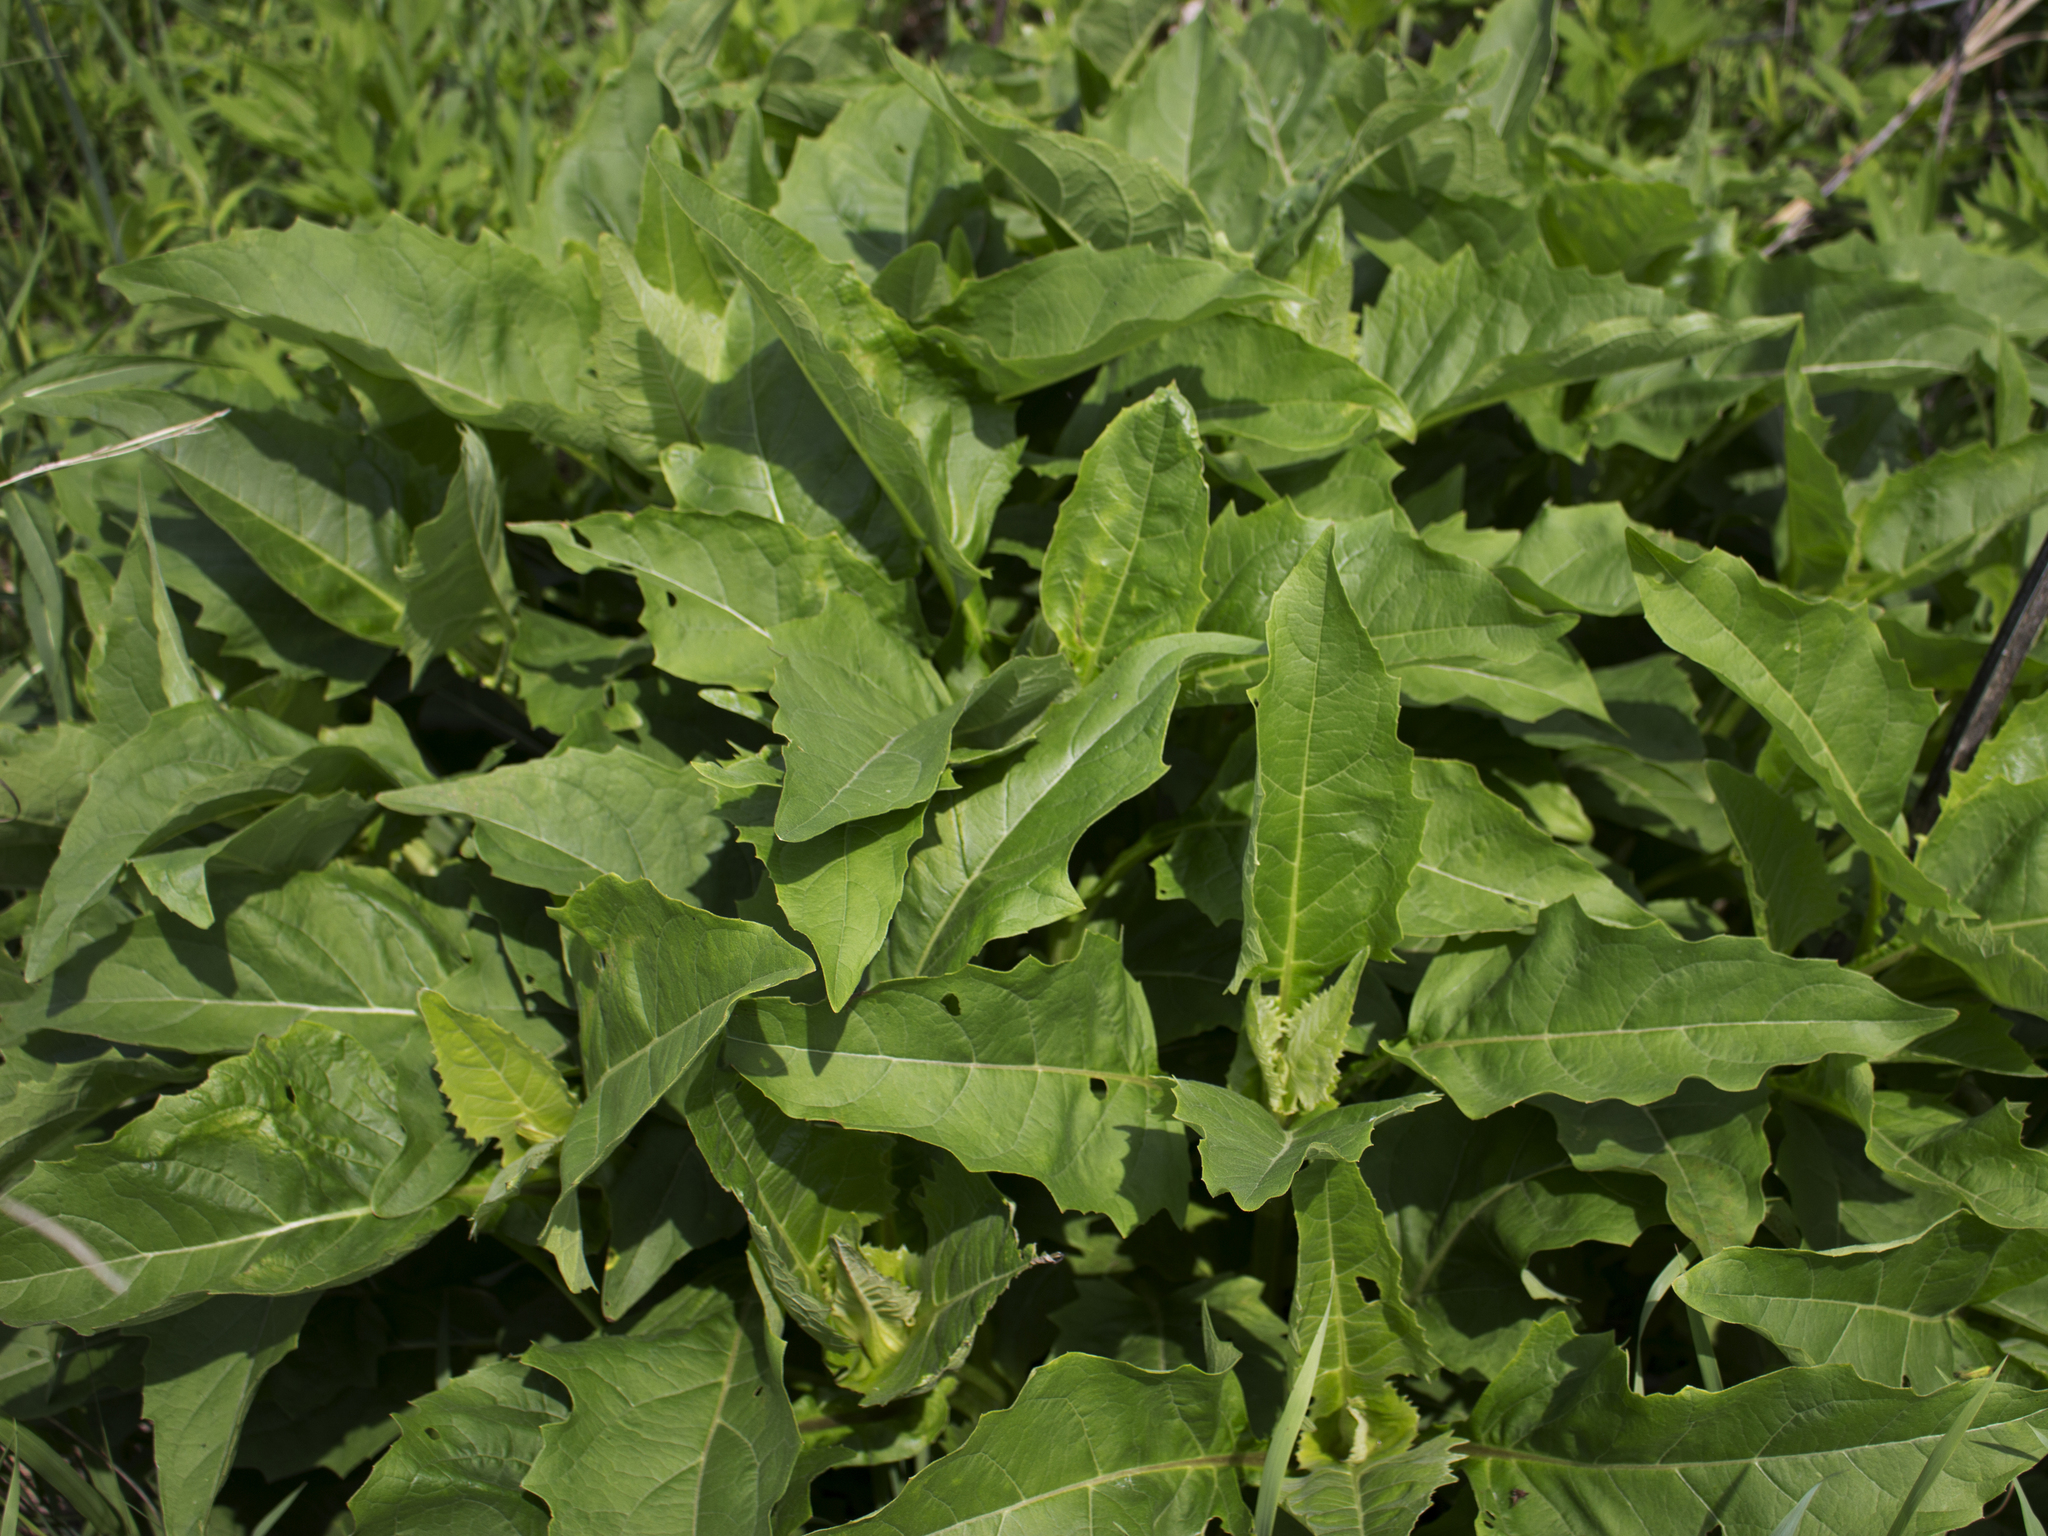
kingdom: Plantae
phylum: Tracheophyta
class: Magnoliopsida
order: Asterales
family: Asteraceae
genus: Silphium
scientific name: Silphium perfoliatum
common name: Cup-plant
